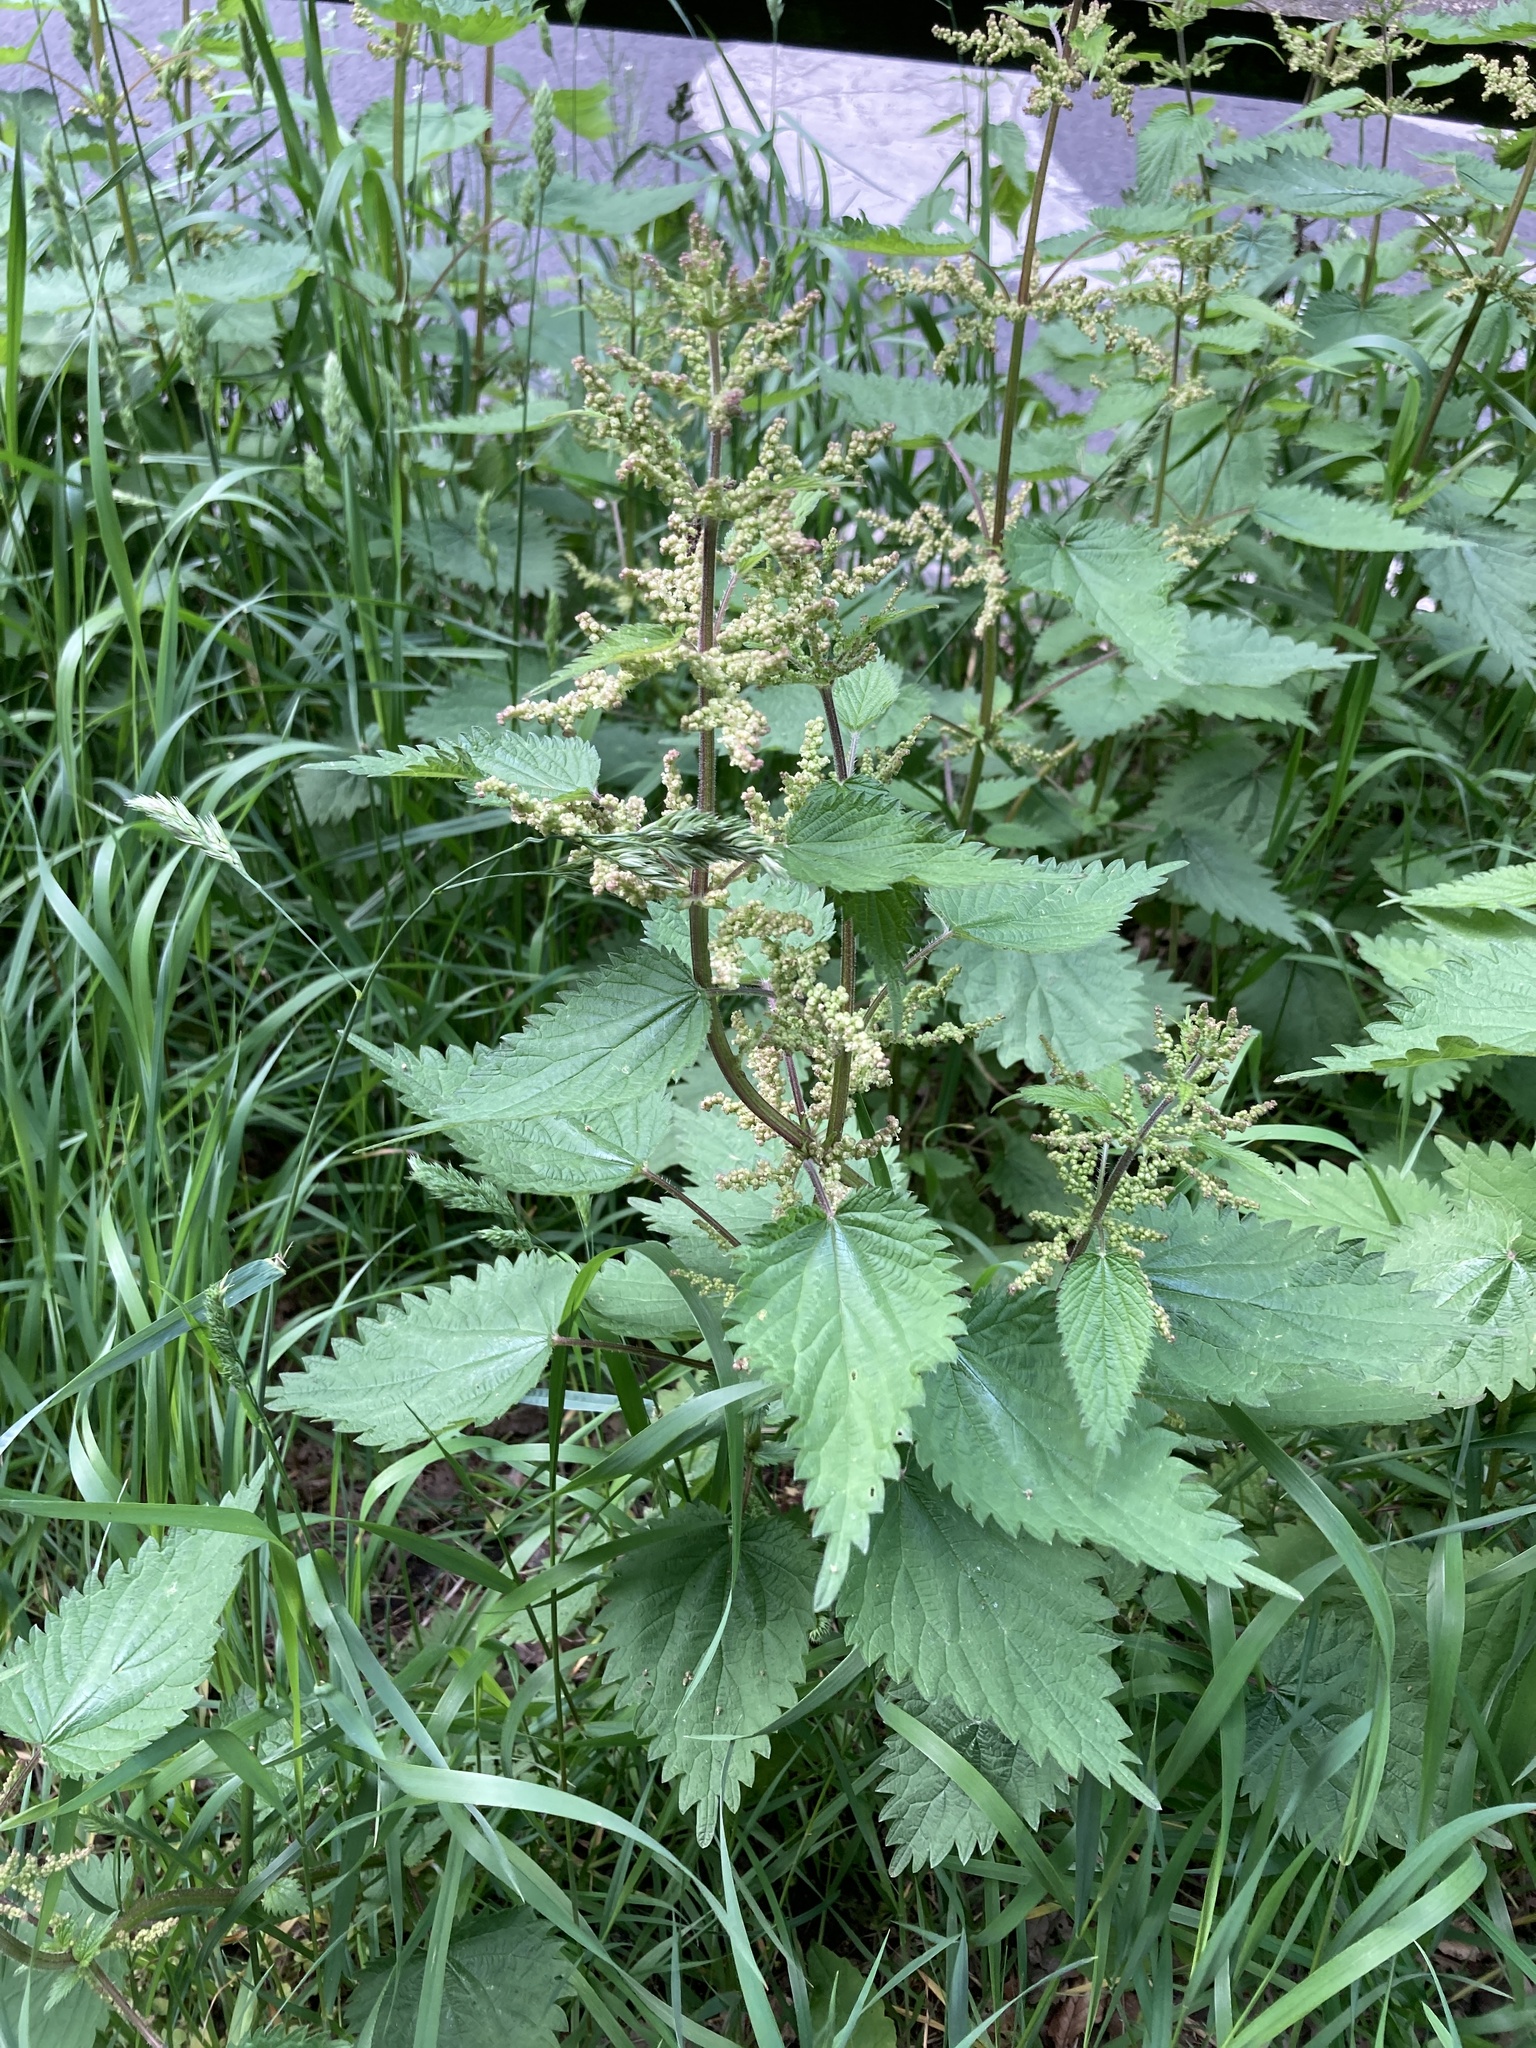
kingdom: Plantae
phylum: Tracheophyta
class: Magnoliopsida
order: Rosales
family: Urticaceae
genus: Urtica
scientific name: Urtica dioica
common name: Common nettle
